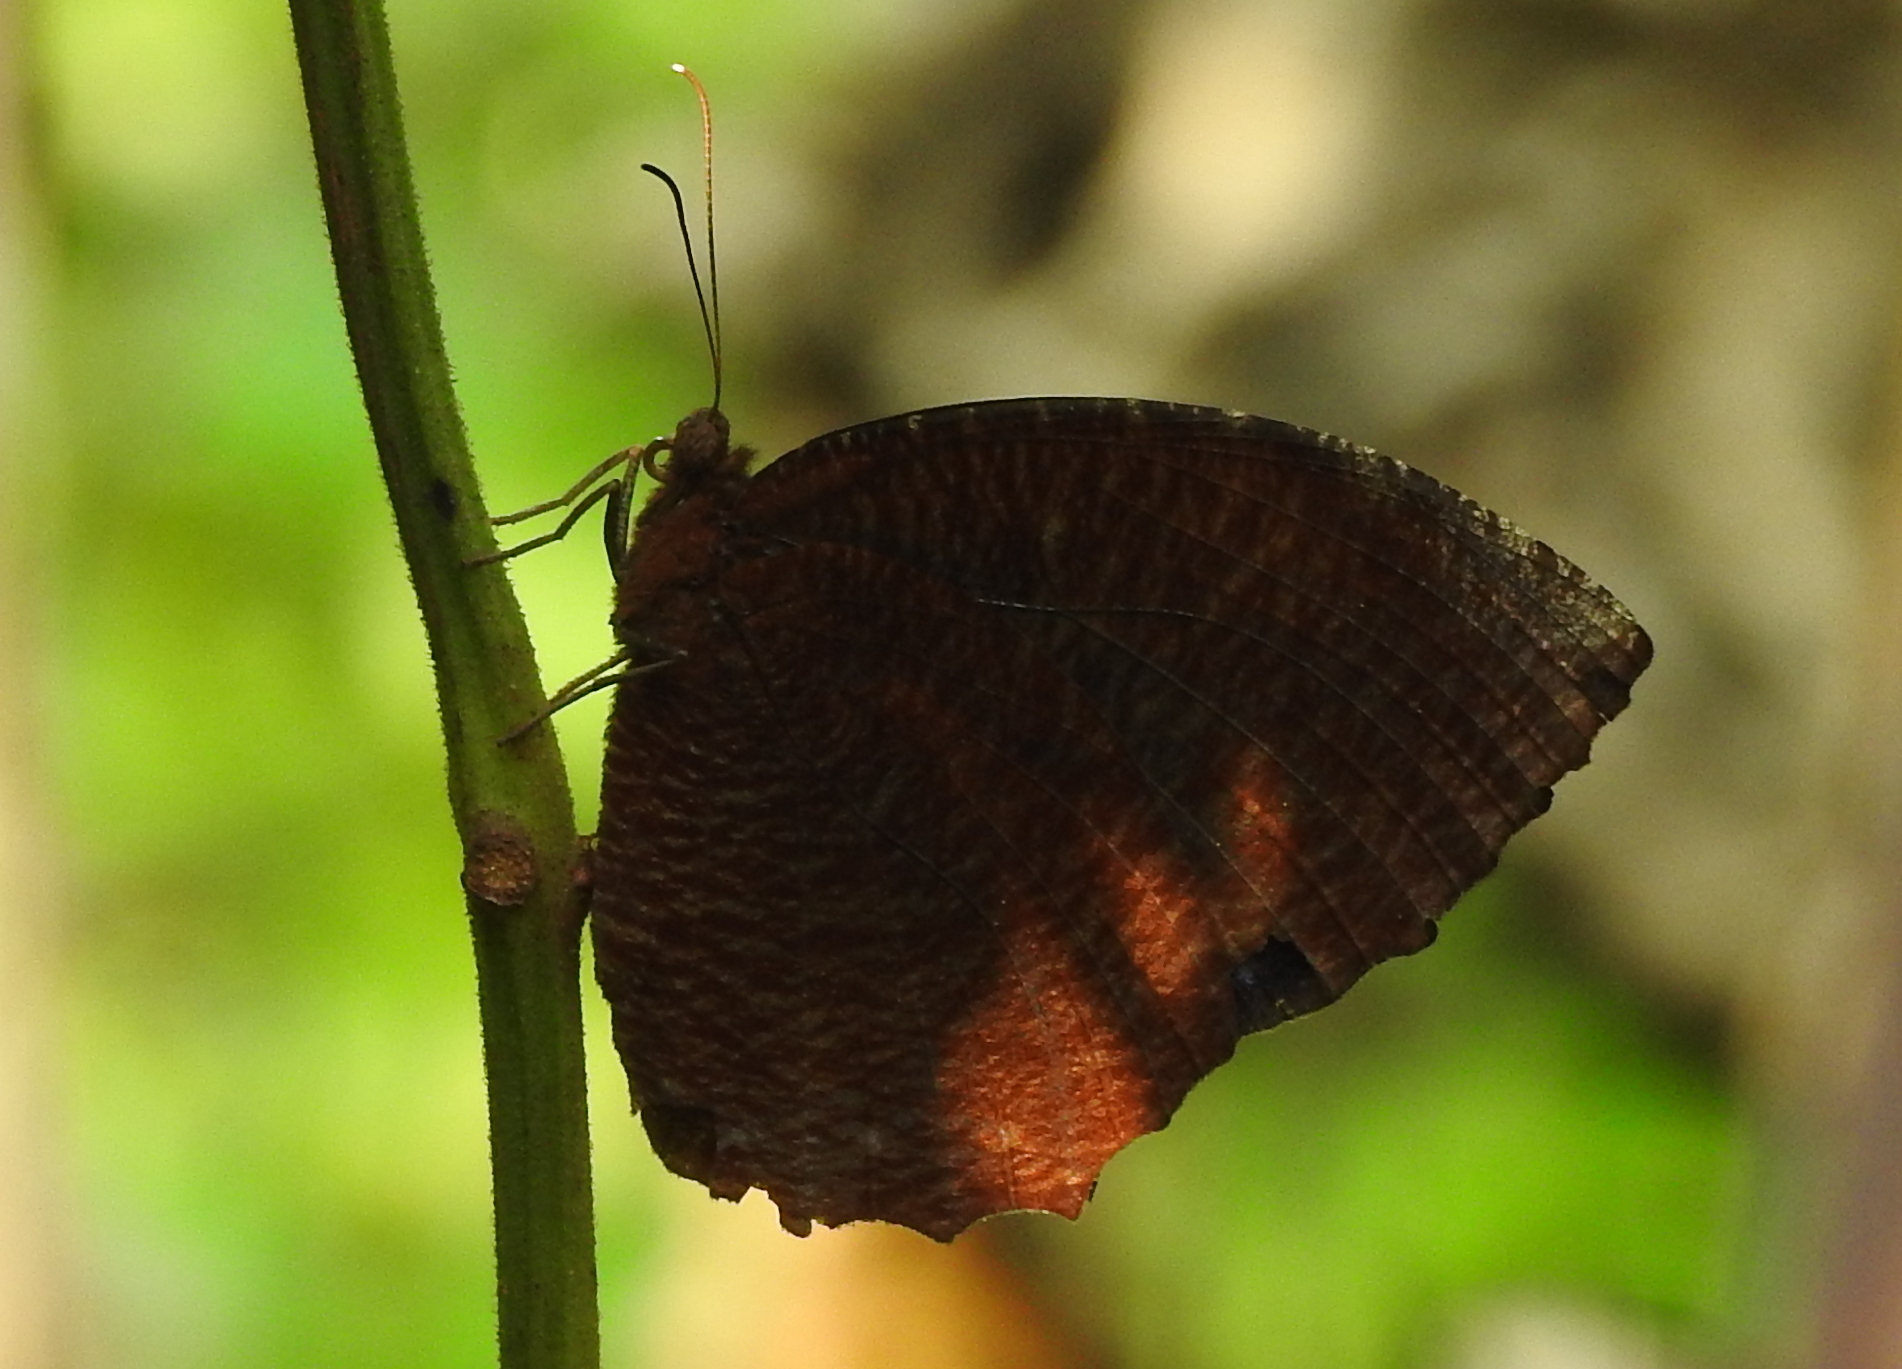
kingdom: Animalia
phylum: Arthropoda
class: Insecta
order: Lepidoptera
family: Nymphalidae
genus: Elymnias
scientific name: Elymnias hypermnestra
